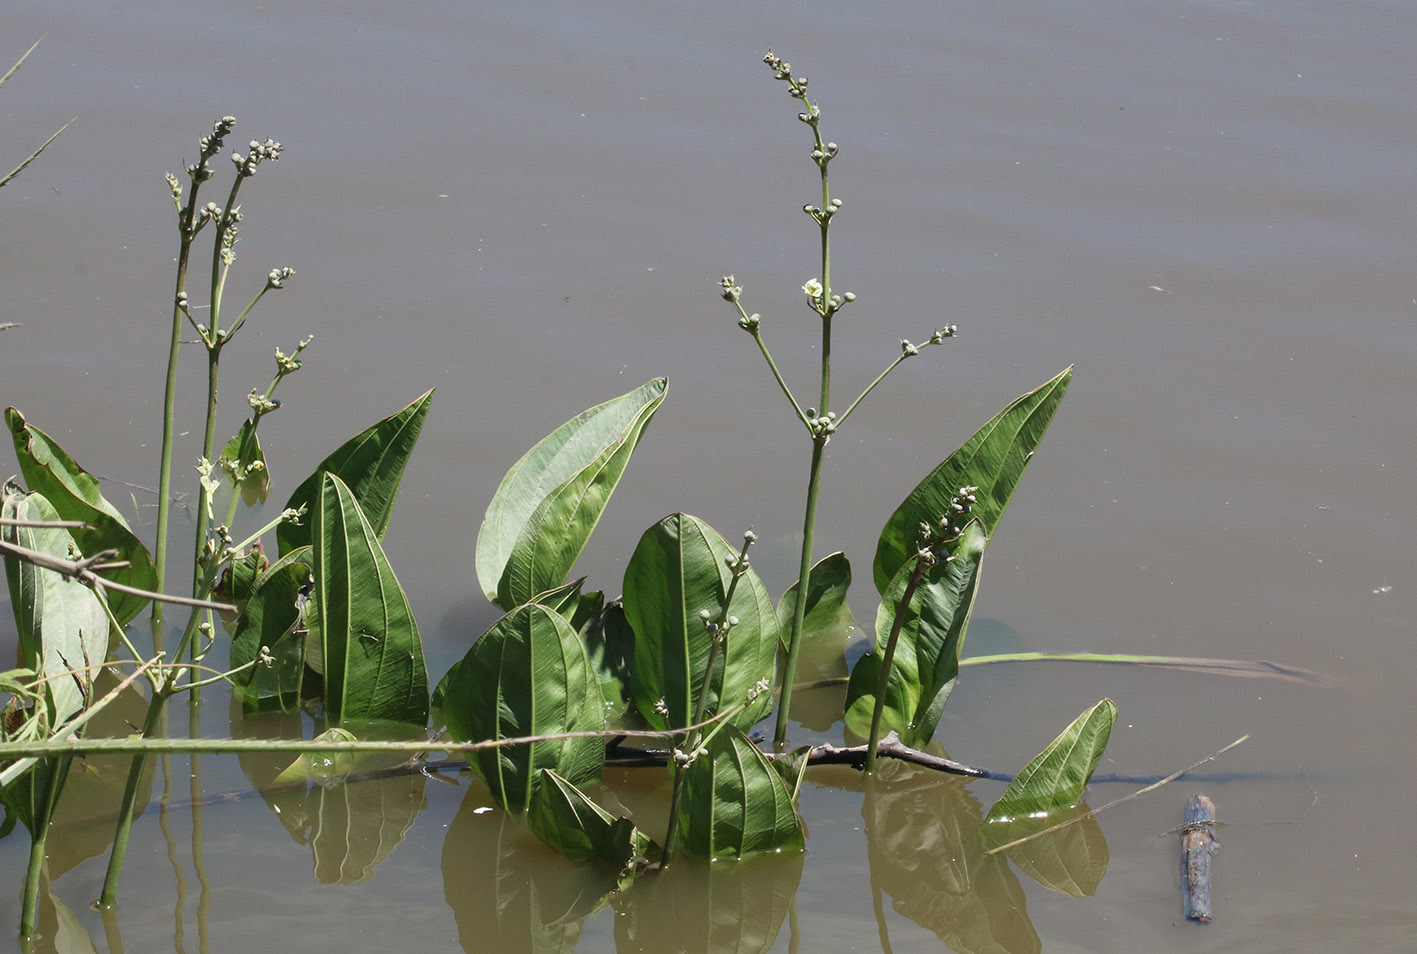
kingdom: Plantae
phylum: Tracheophyta
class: Liliopsida
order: Alismatales
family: Alismataceae
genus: Aquarius
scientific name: Aquarius grandiflorus
